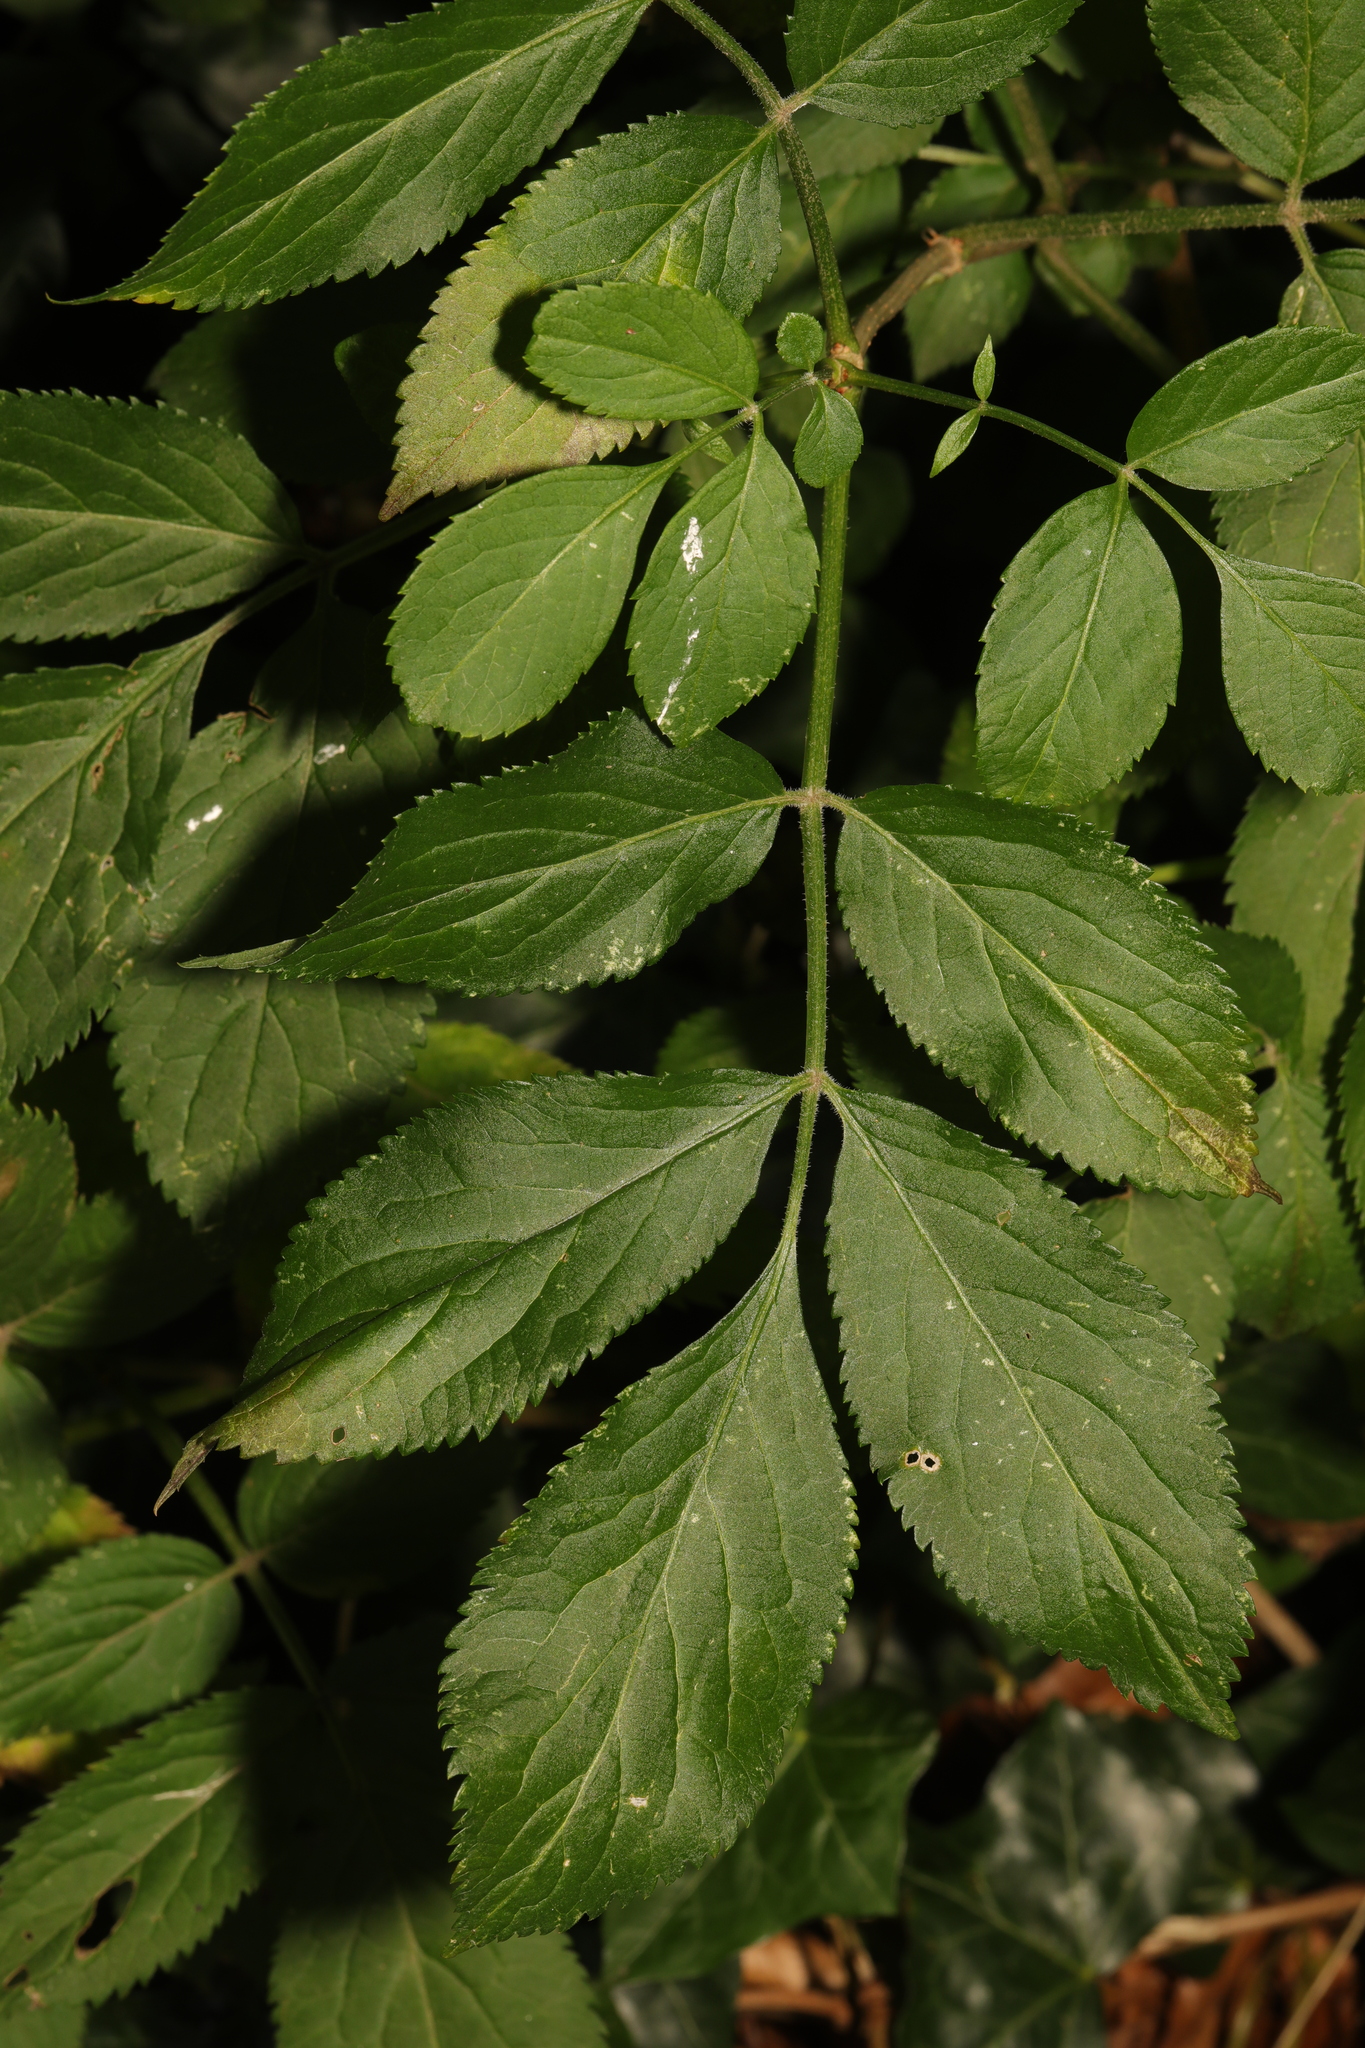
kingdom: Plantae
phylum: Tracheophyta
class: Magnoliopsida
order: Dipsacales
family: Viburnaceae
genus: Sambucus
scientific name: Sambucus nigra
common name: Elder
